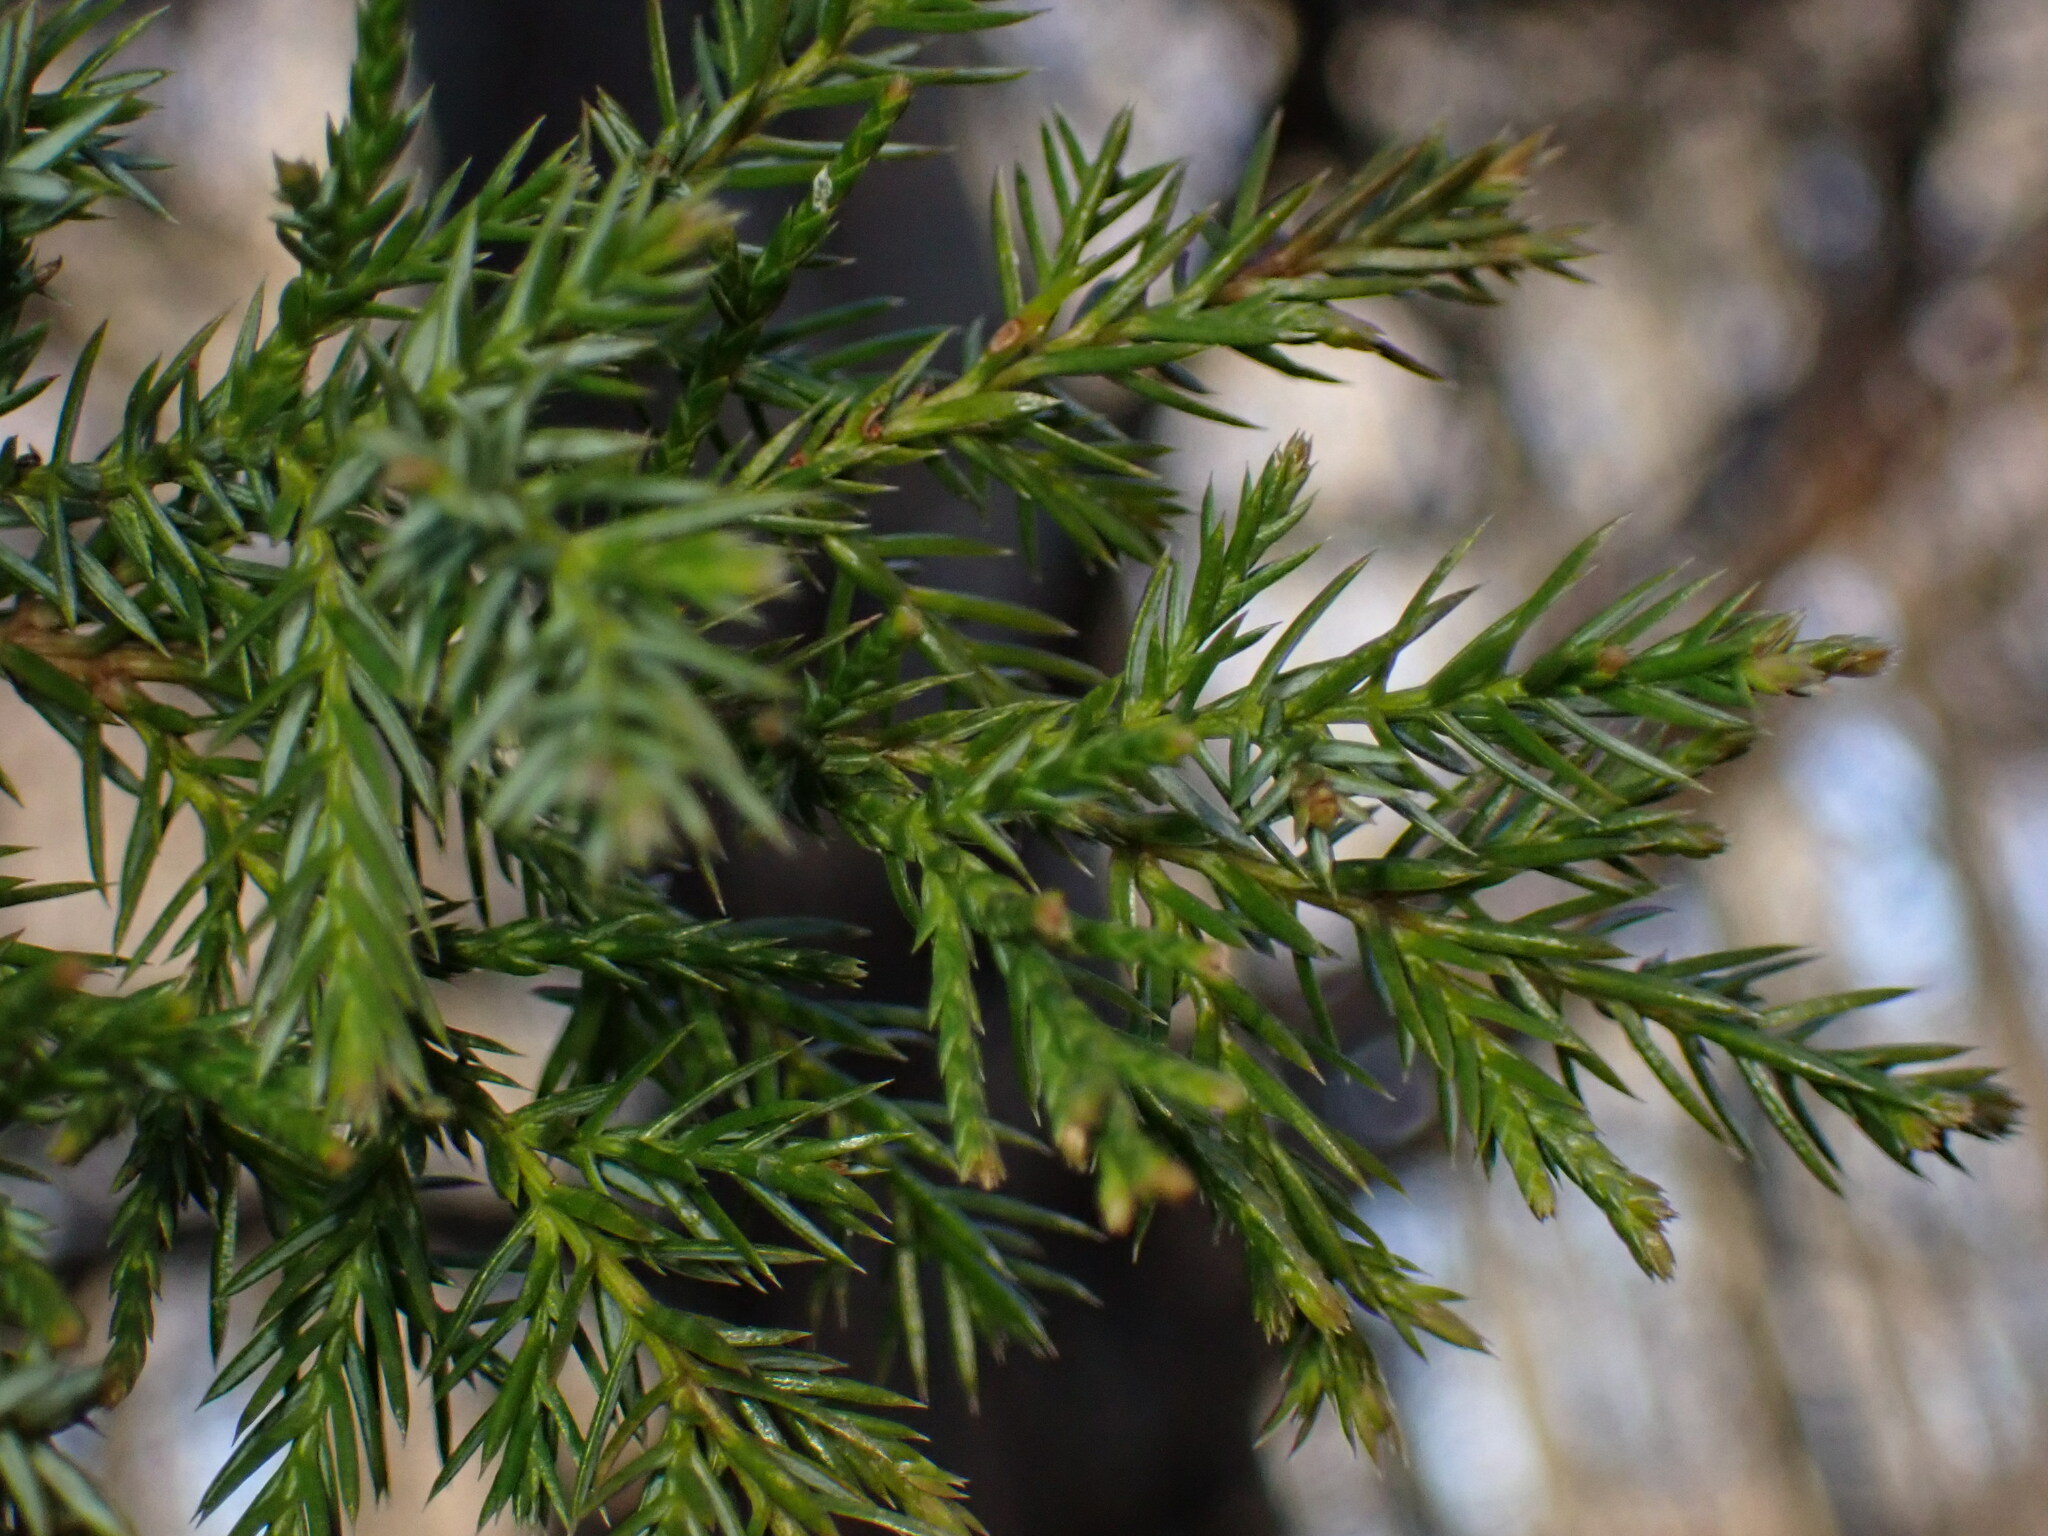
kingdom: Plantae
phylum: Tracheophyta
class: Pinopsida
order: Pinales
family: Cupressaceae
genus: Juniperus
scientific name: Juniperus virginiana
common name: Red juniper
